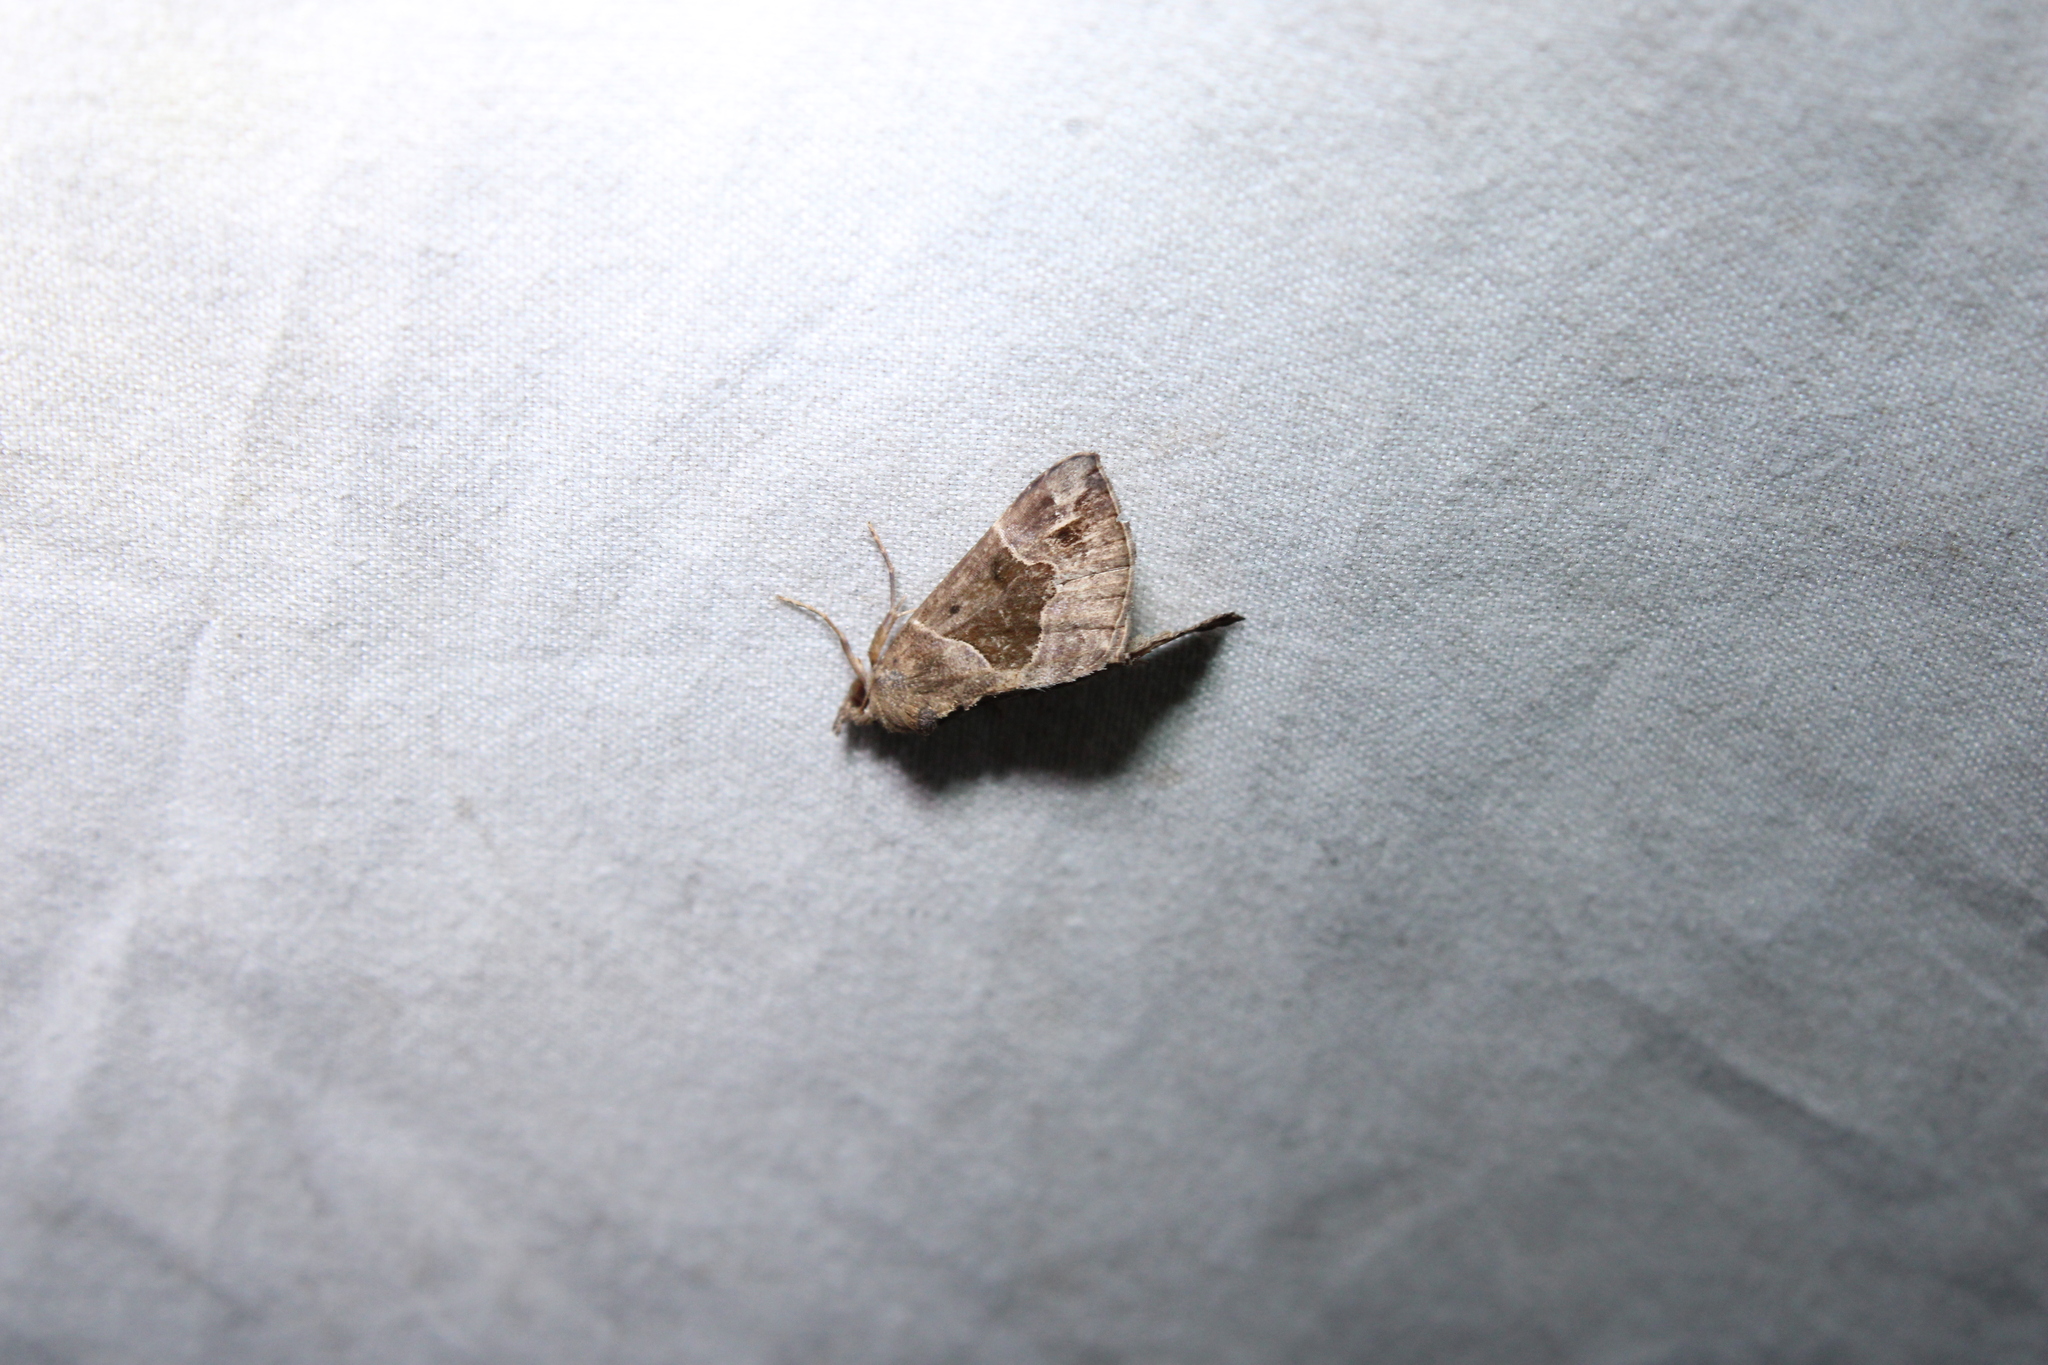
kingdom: Animalia
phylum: Arthropoda
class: Insecta
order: Lepidoptera
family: Erebidae
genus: Hypena
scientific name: Hypena manalis
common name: Flowing-line bomolocha moth
